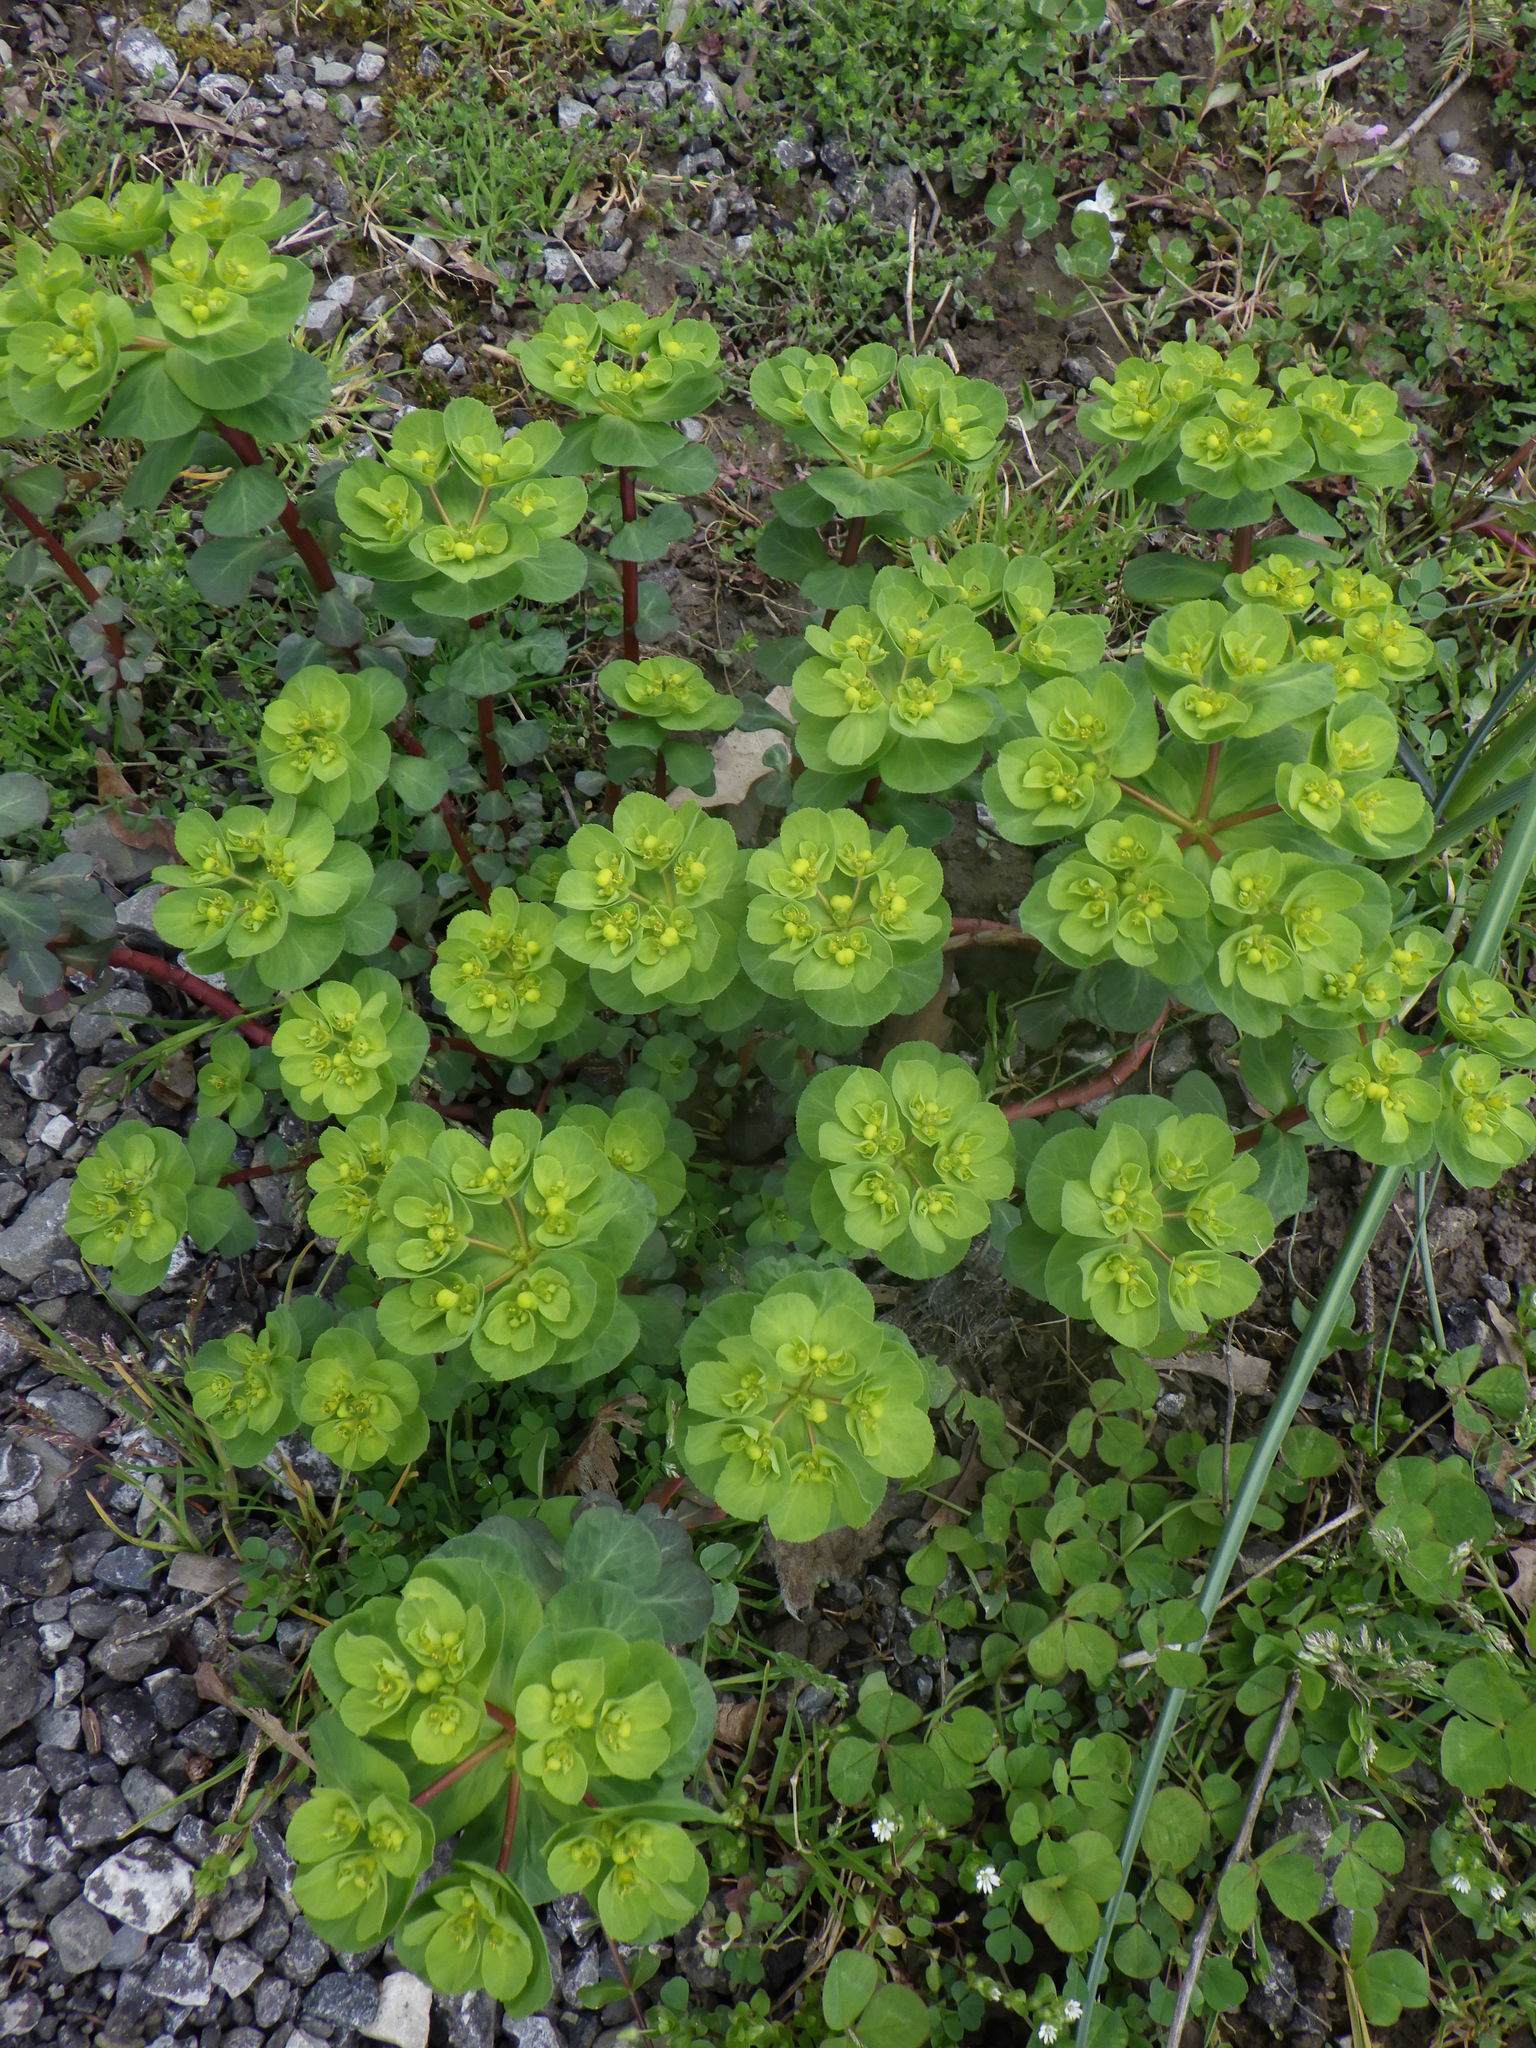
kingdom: Plantae
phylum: Tracheophyta
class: Magnoliopsida
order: Malpighiales
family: Euphorbiaceae
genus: Euphorbia
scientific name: Euphorbia helioscopia
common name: Sun spurge
